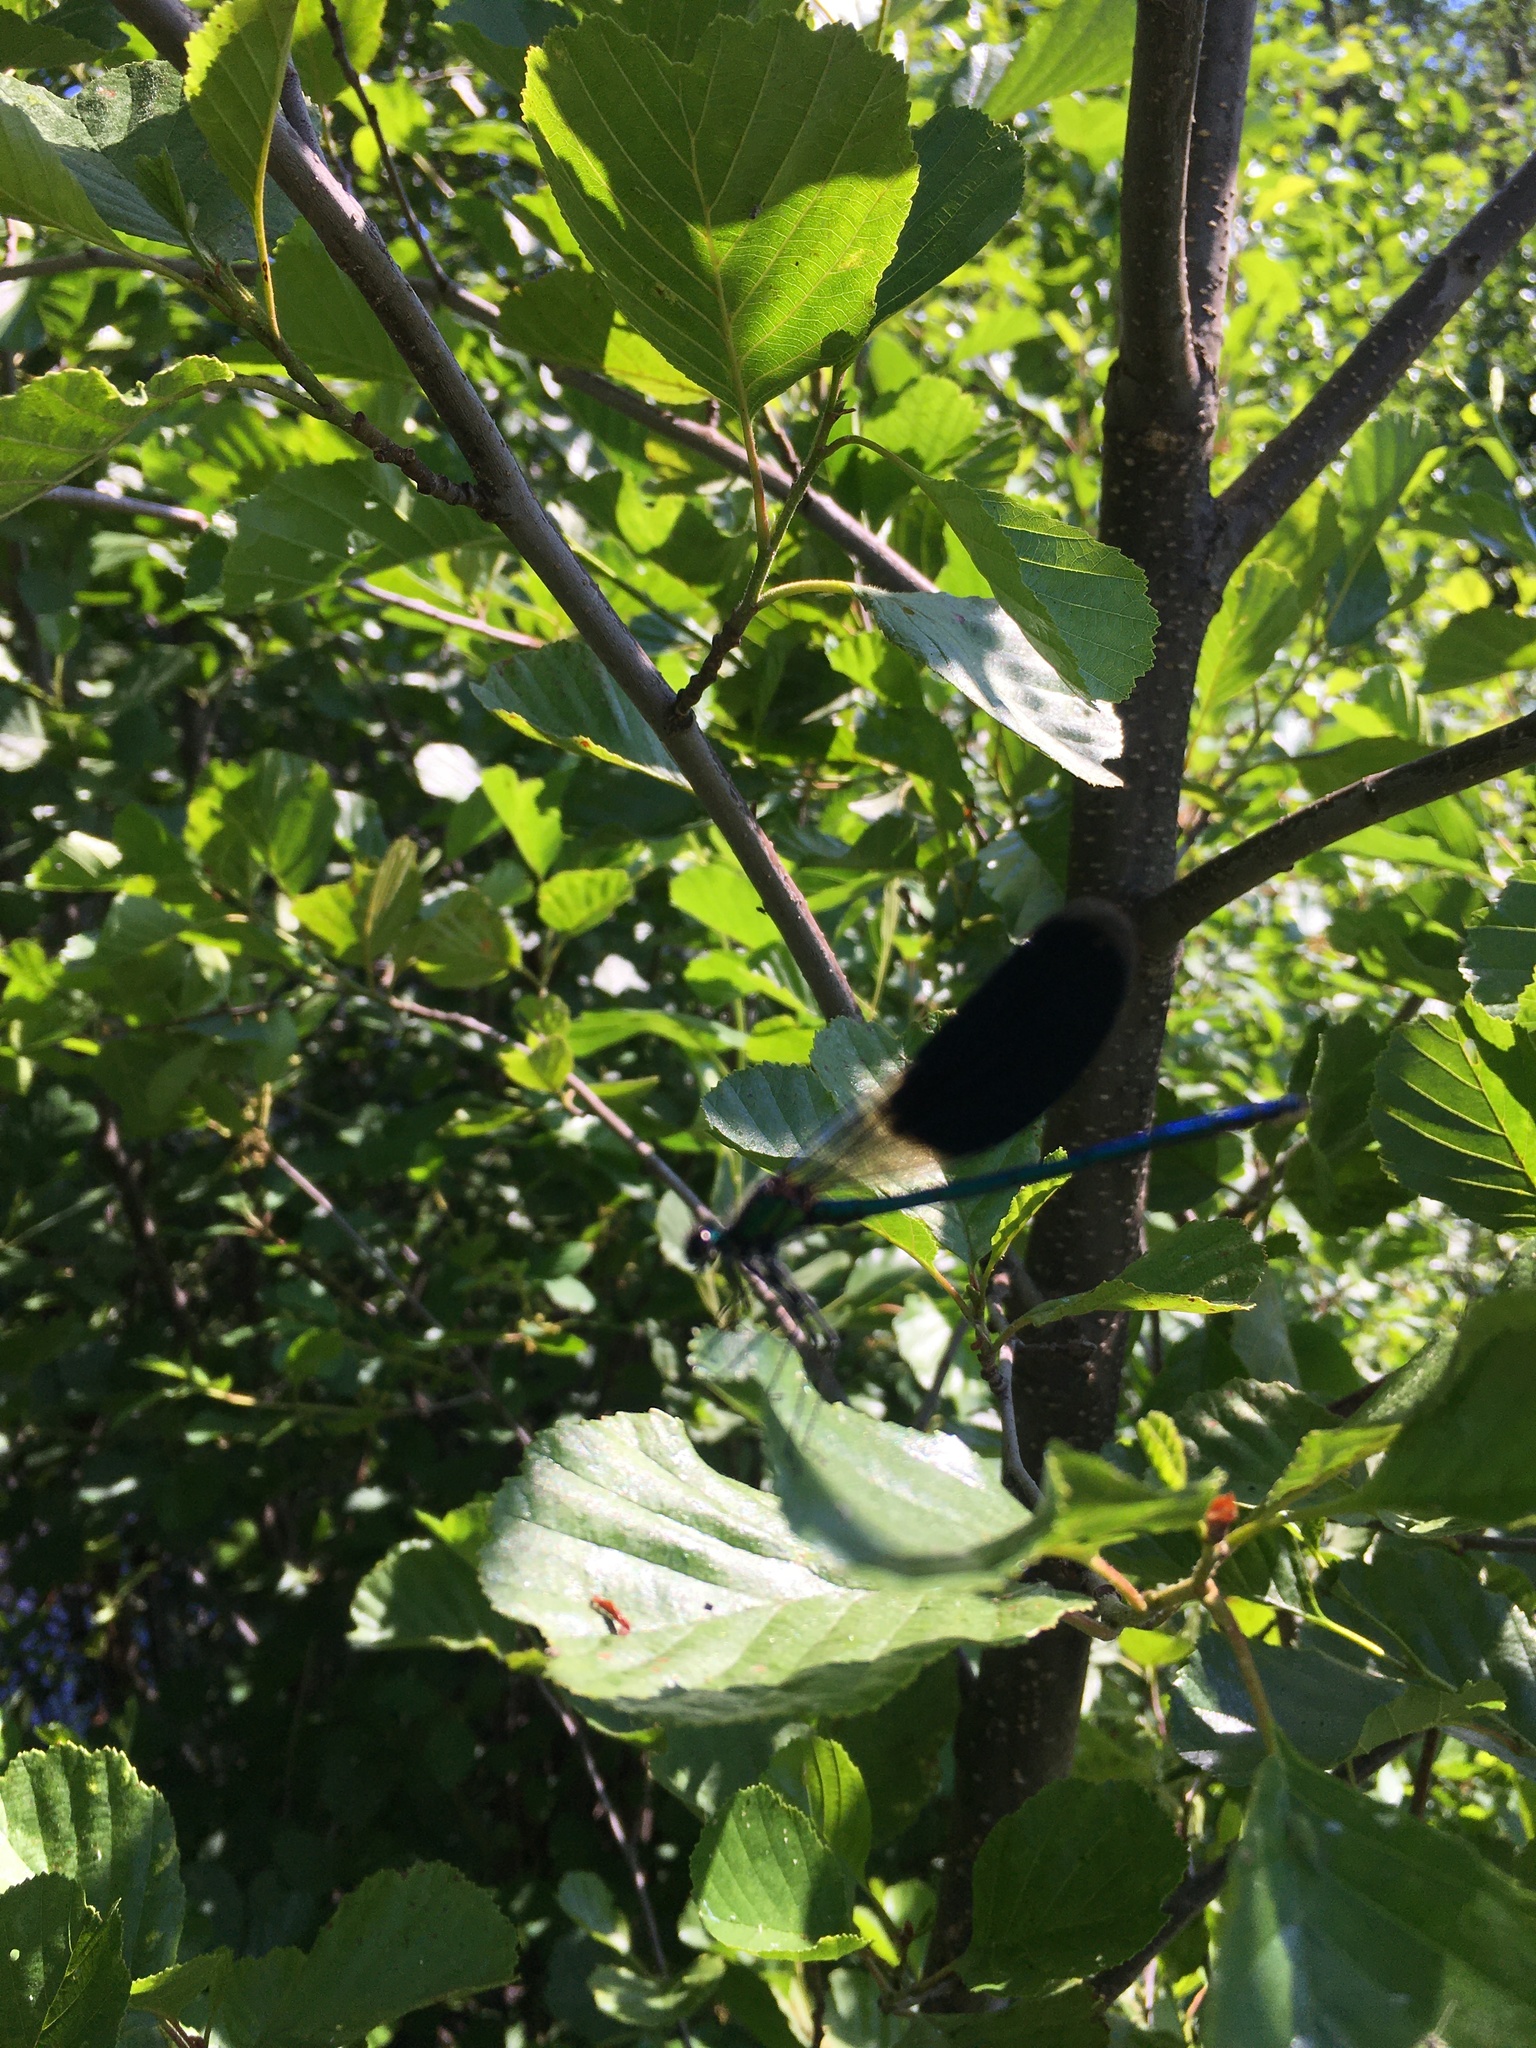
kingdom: Animalia
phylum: Arthropoda
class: Insecta
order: Odonata
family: Calopterygidae
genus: Calopteryx
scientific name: Calopteryx splendens
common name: Banded demoiselle
